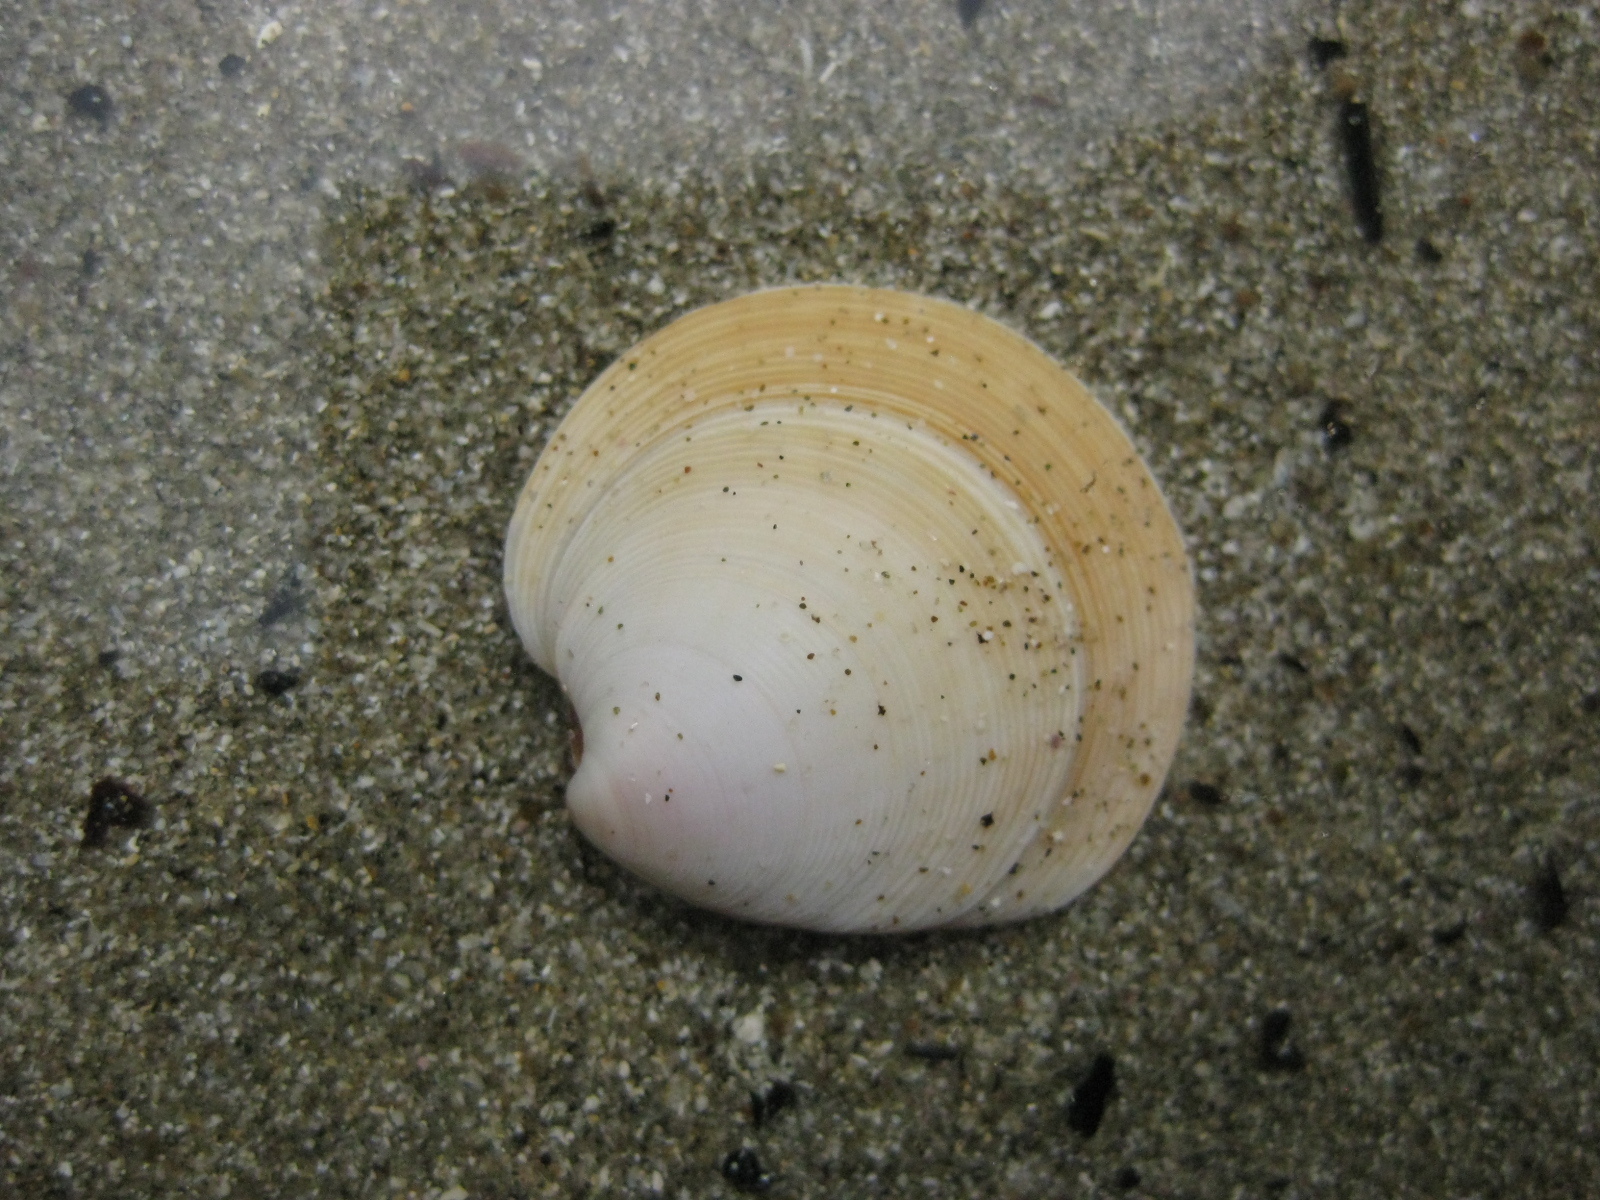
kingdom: Animalia
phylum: Mollusca
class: Bivalvia
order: Venerida
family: Veneridae
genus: Dosinia
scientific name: Dosinia subrosea
